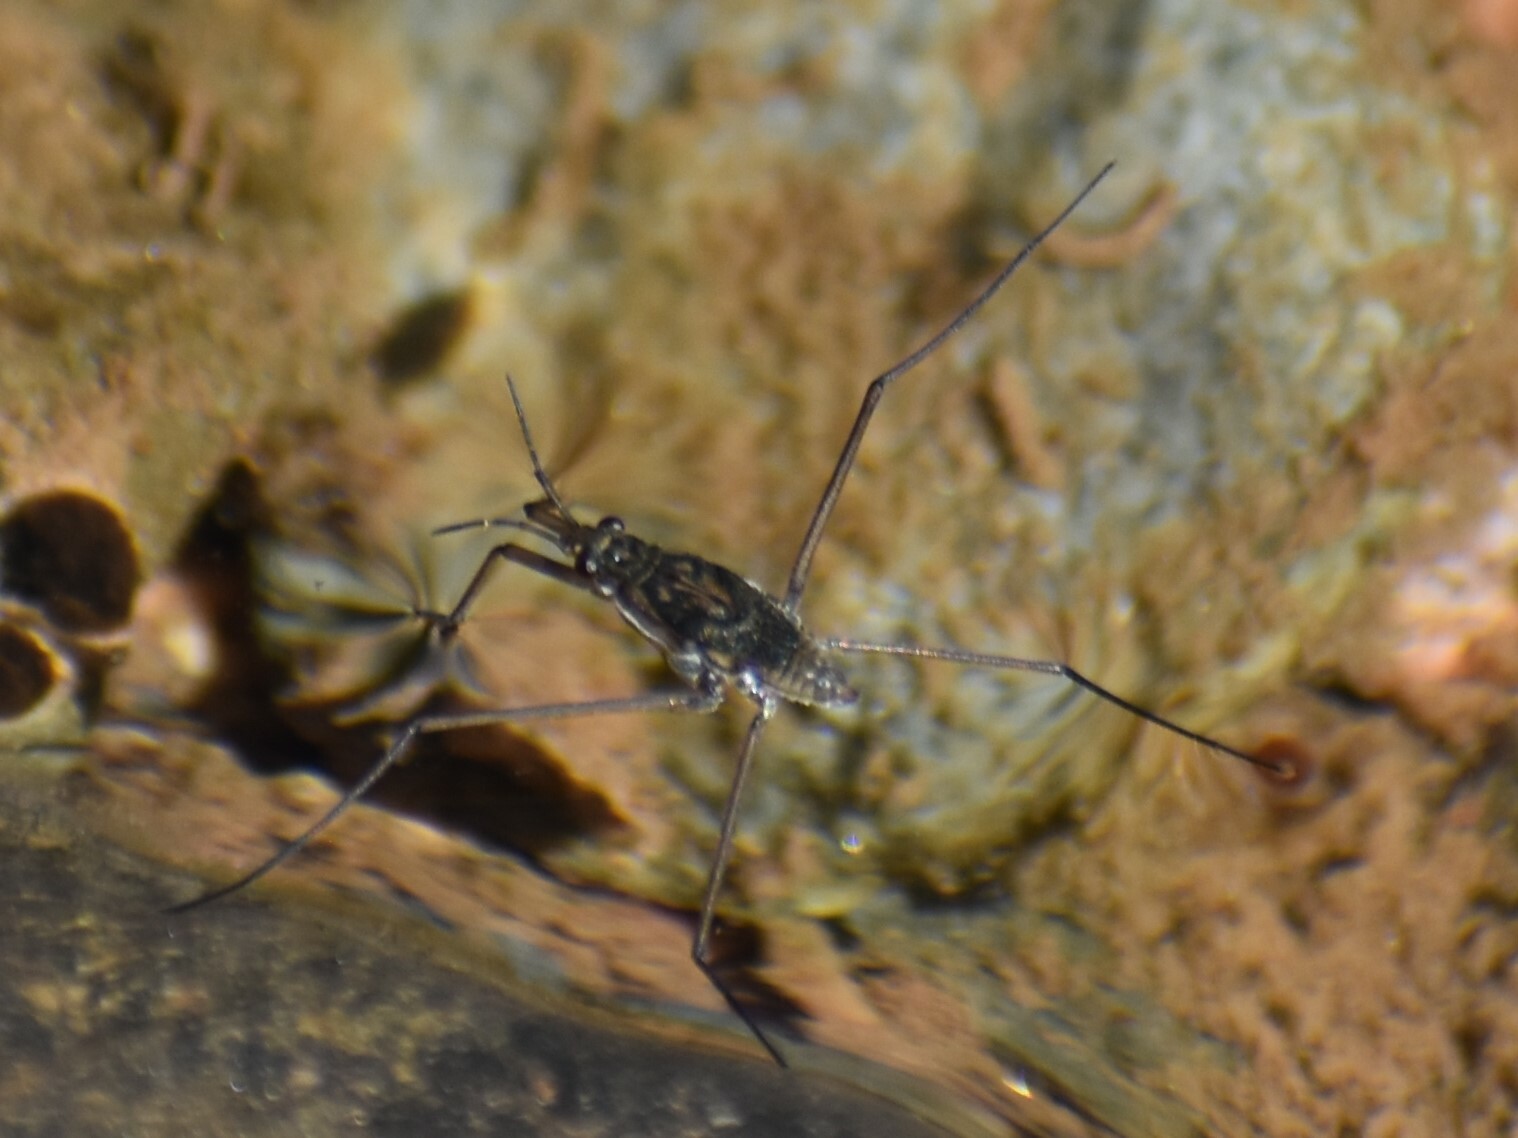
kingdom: Animalia
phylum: Arthropoda
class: Insecta
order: Hemiptera
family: Gerridae
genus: Aquarius
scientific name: Aquarius remigis
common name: Common water strider
